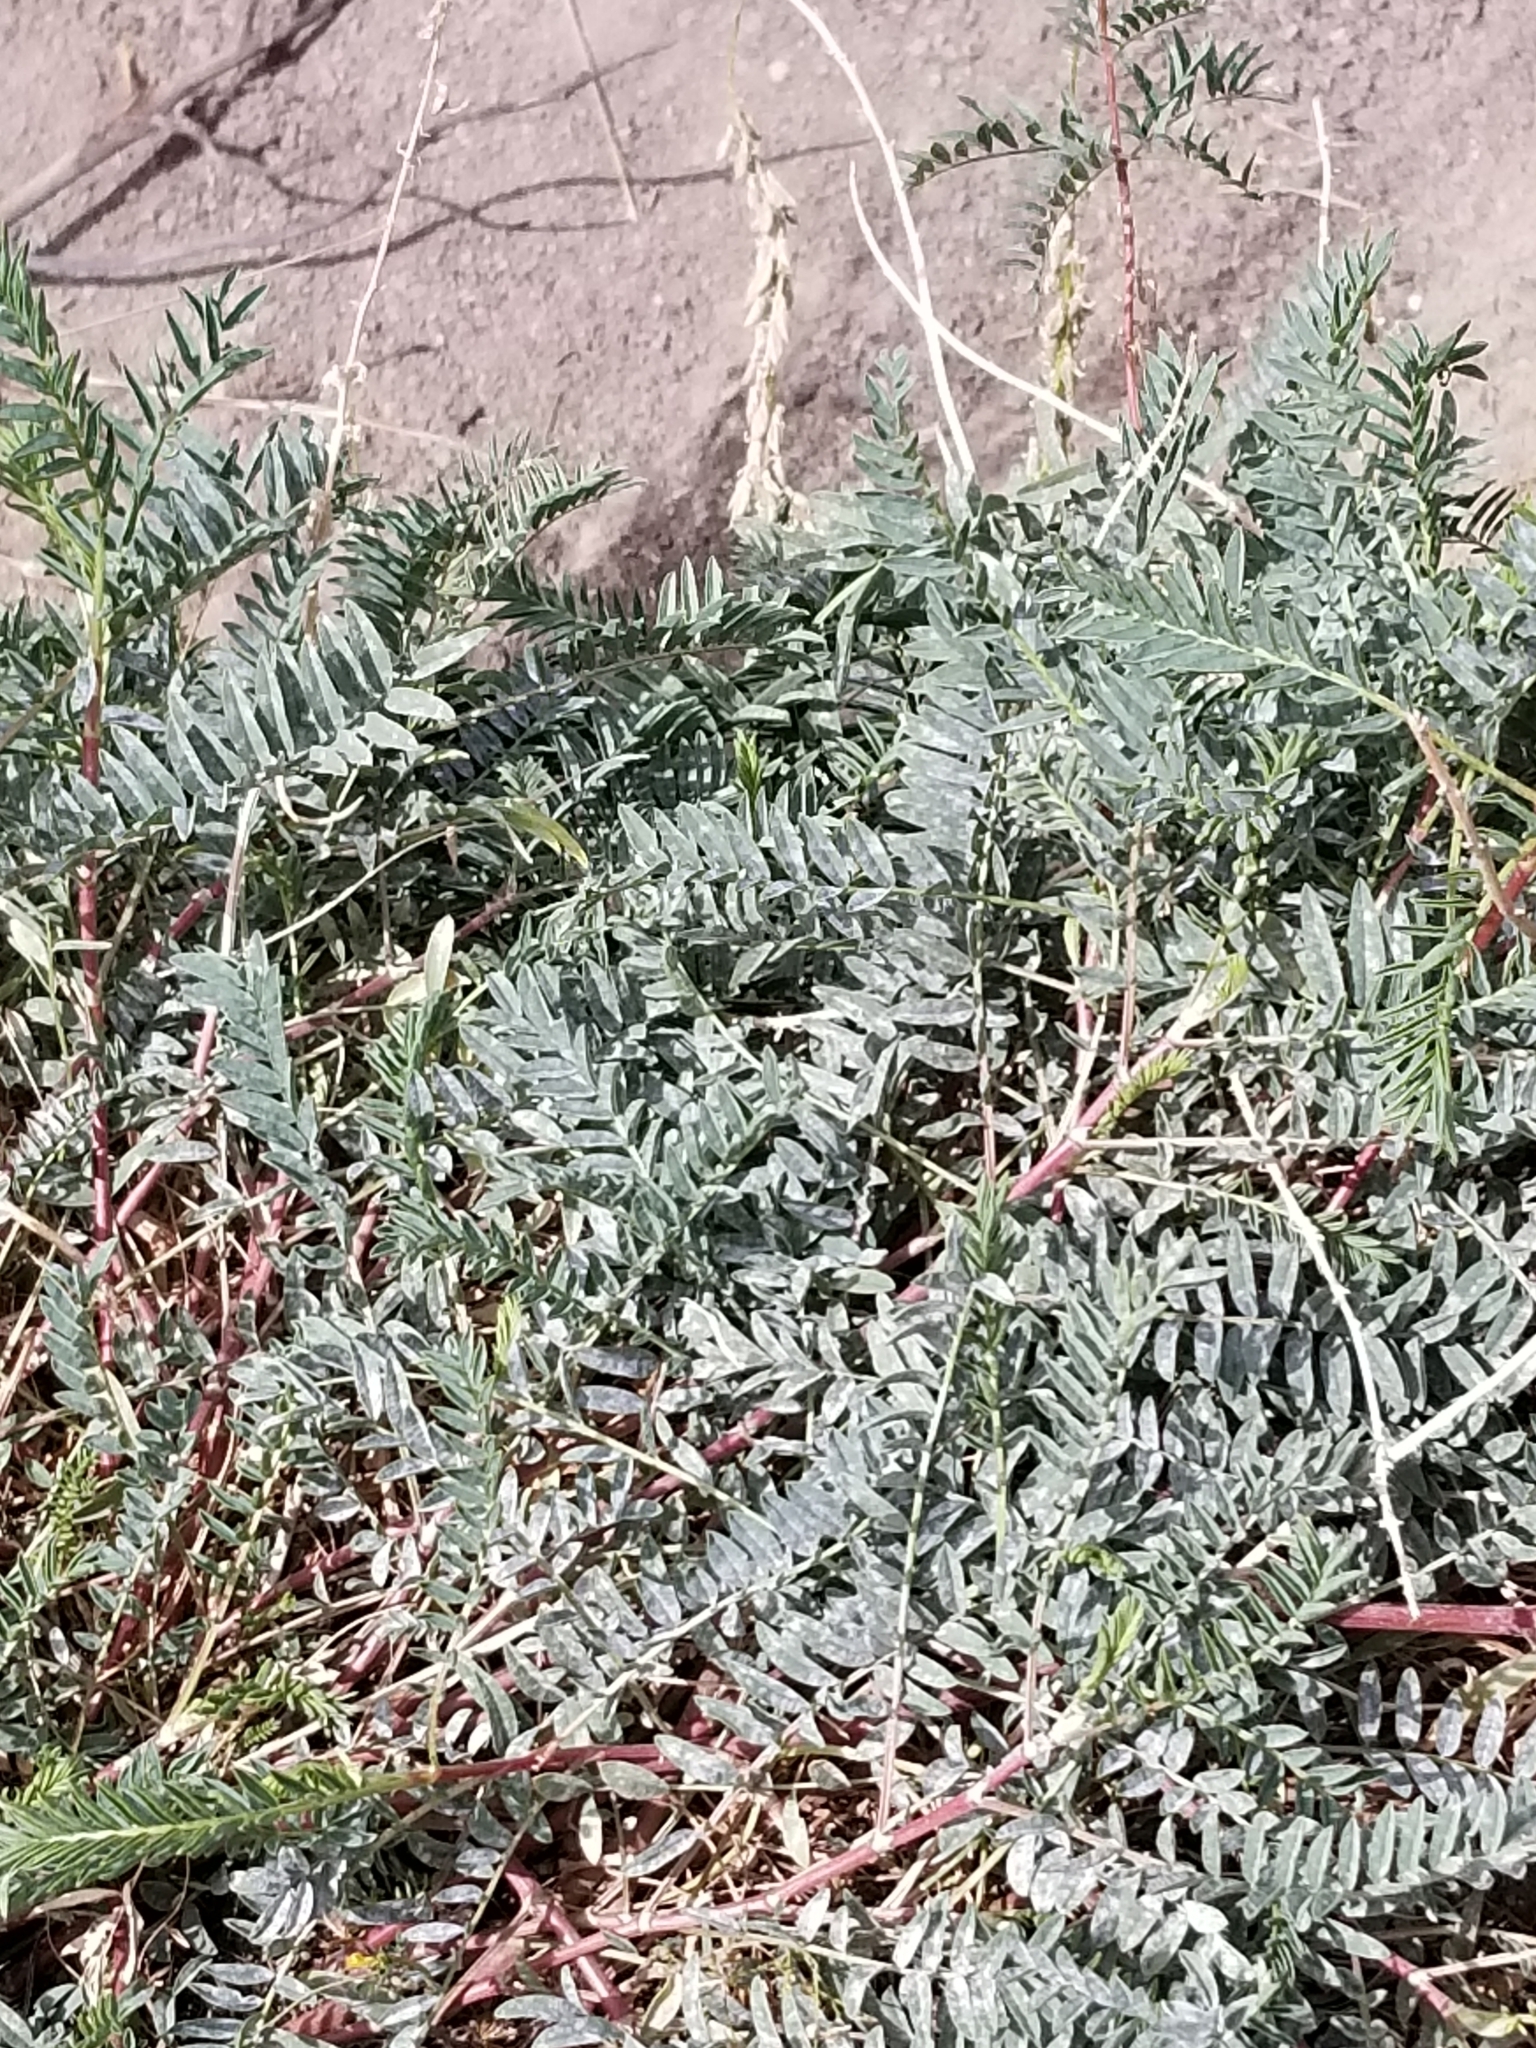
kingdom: Plantae
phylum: Tracheophyta
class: Magnoliopsida
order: Fabales
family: Fabaceae
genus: Astragalus
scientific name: Astragalus bisulcatus
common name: Two-groove milk-vetch
